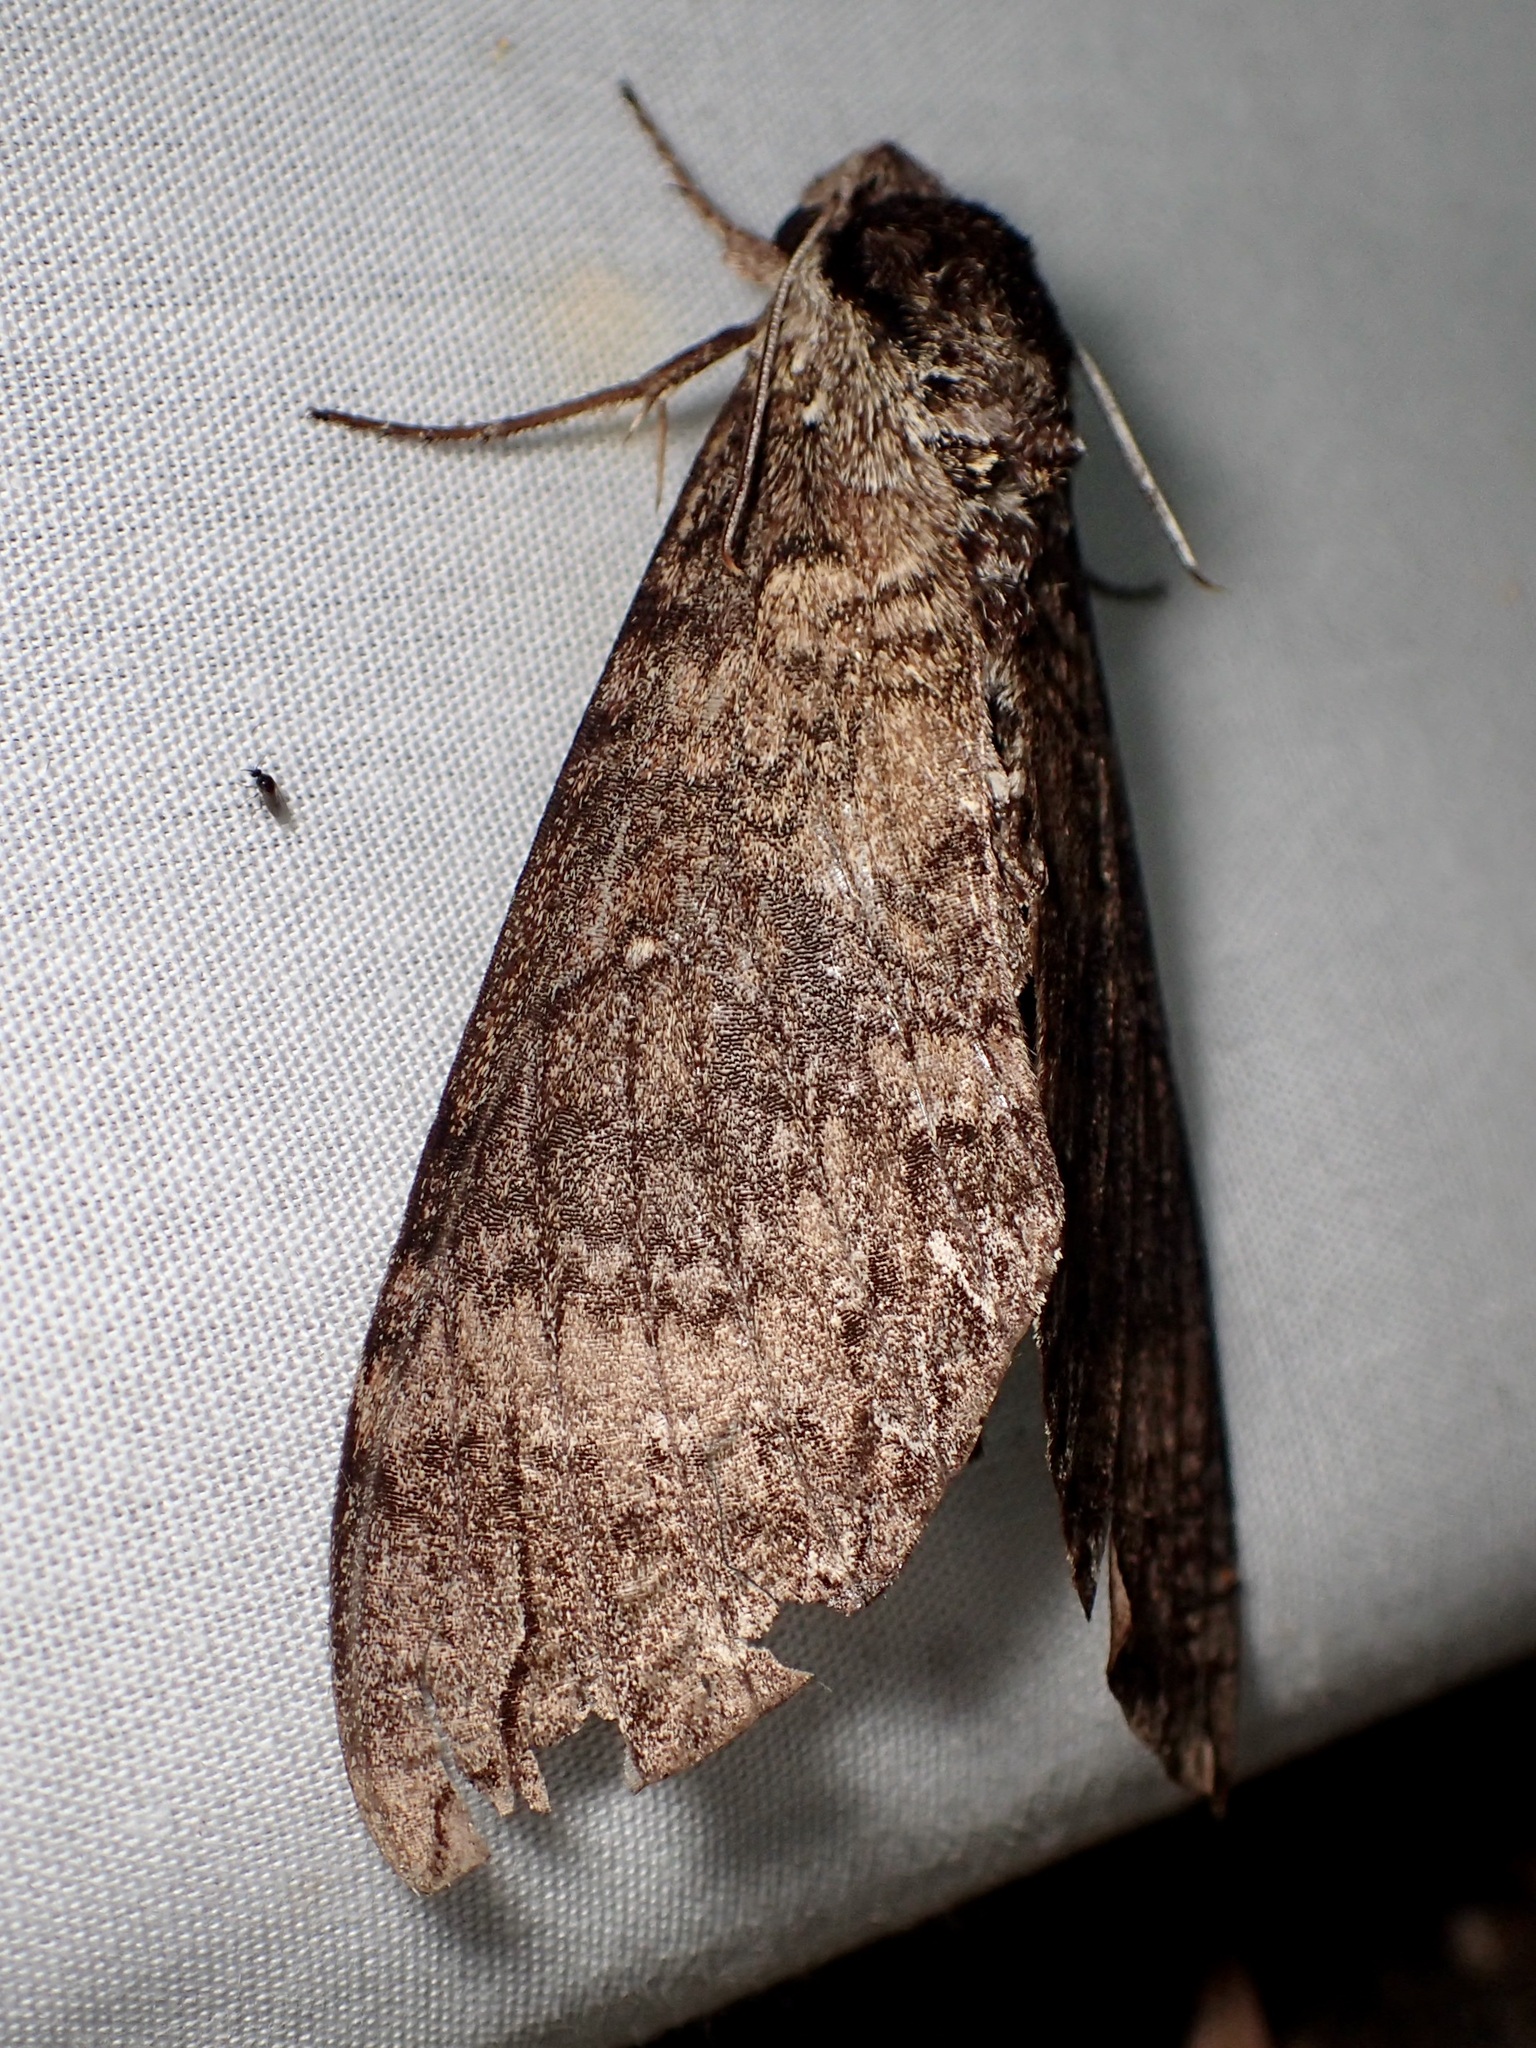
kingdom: Animalia
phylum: Arthropoda
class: Insecta
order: Lepidoptera
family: Sphingidae
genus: Manduca
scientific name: Manduca occulta
